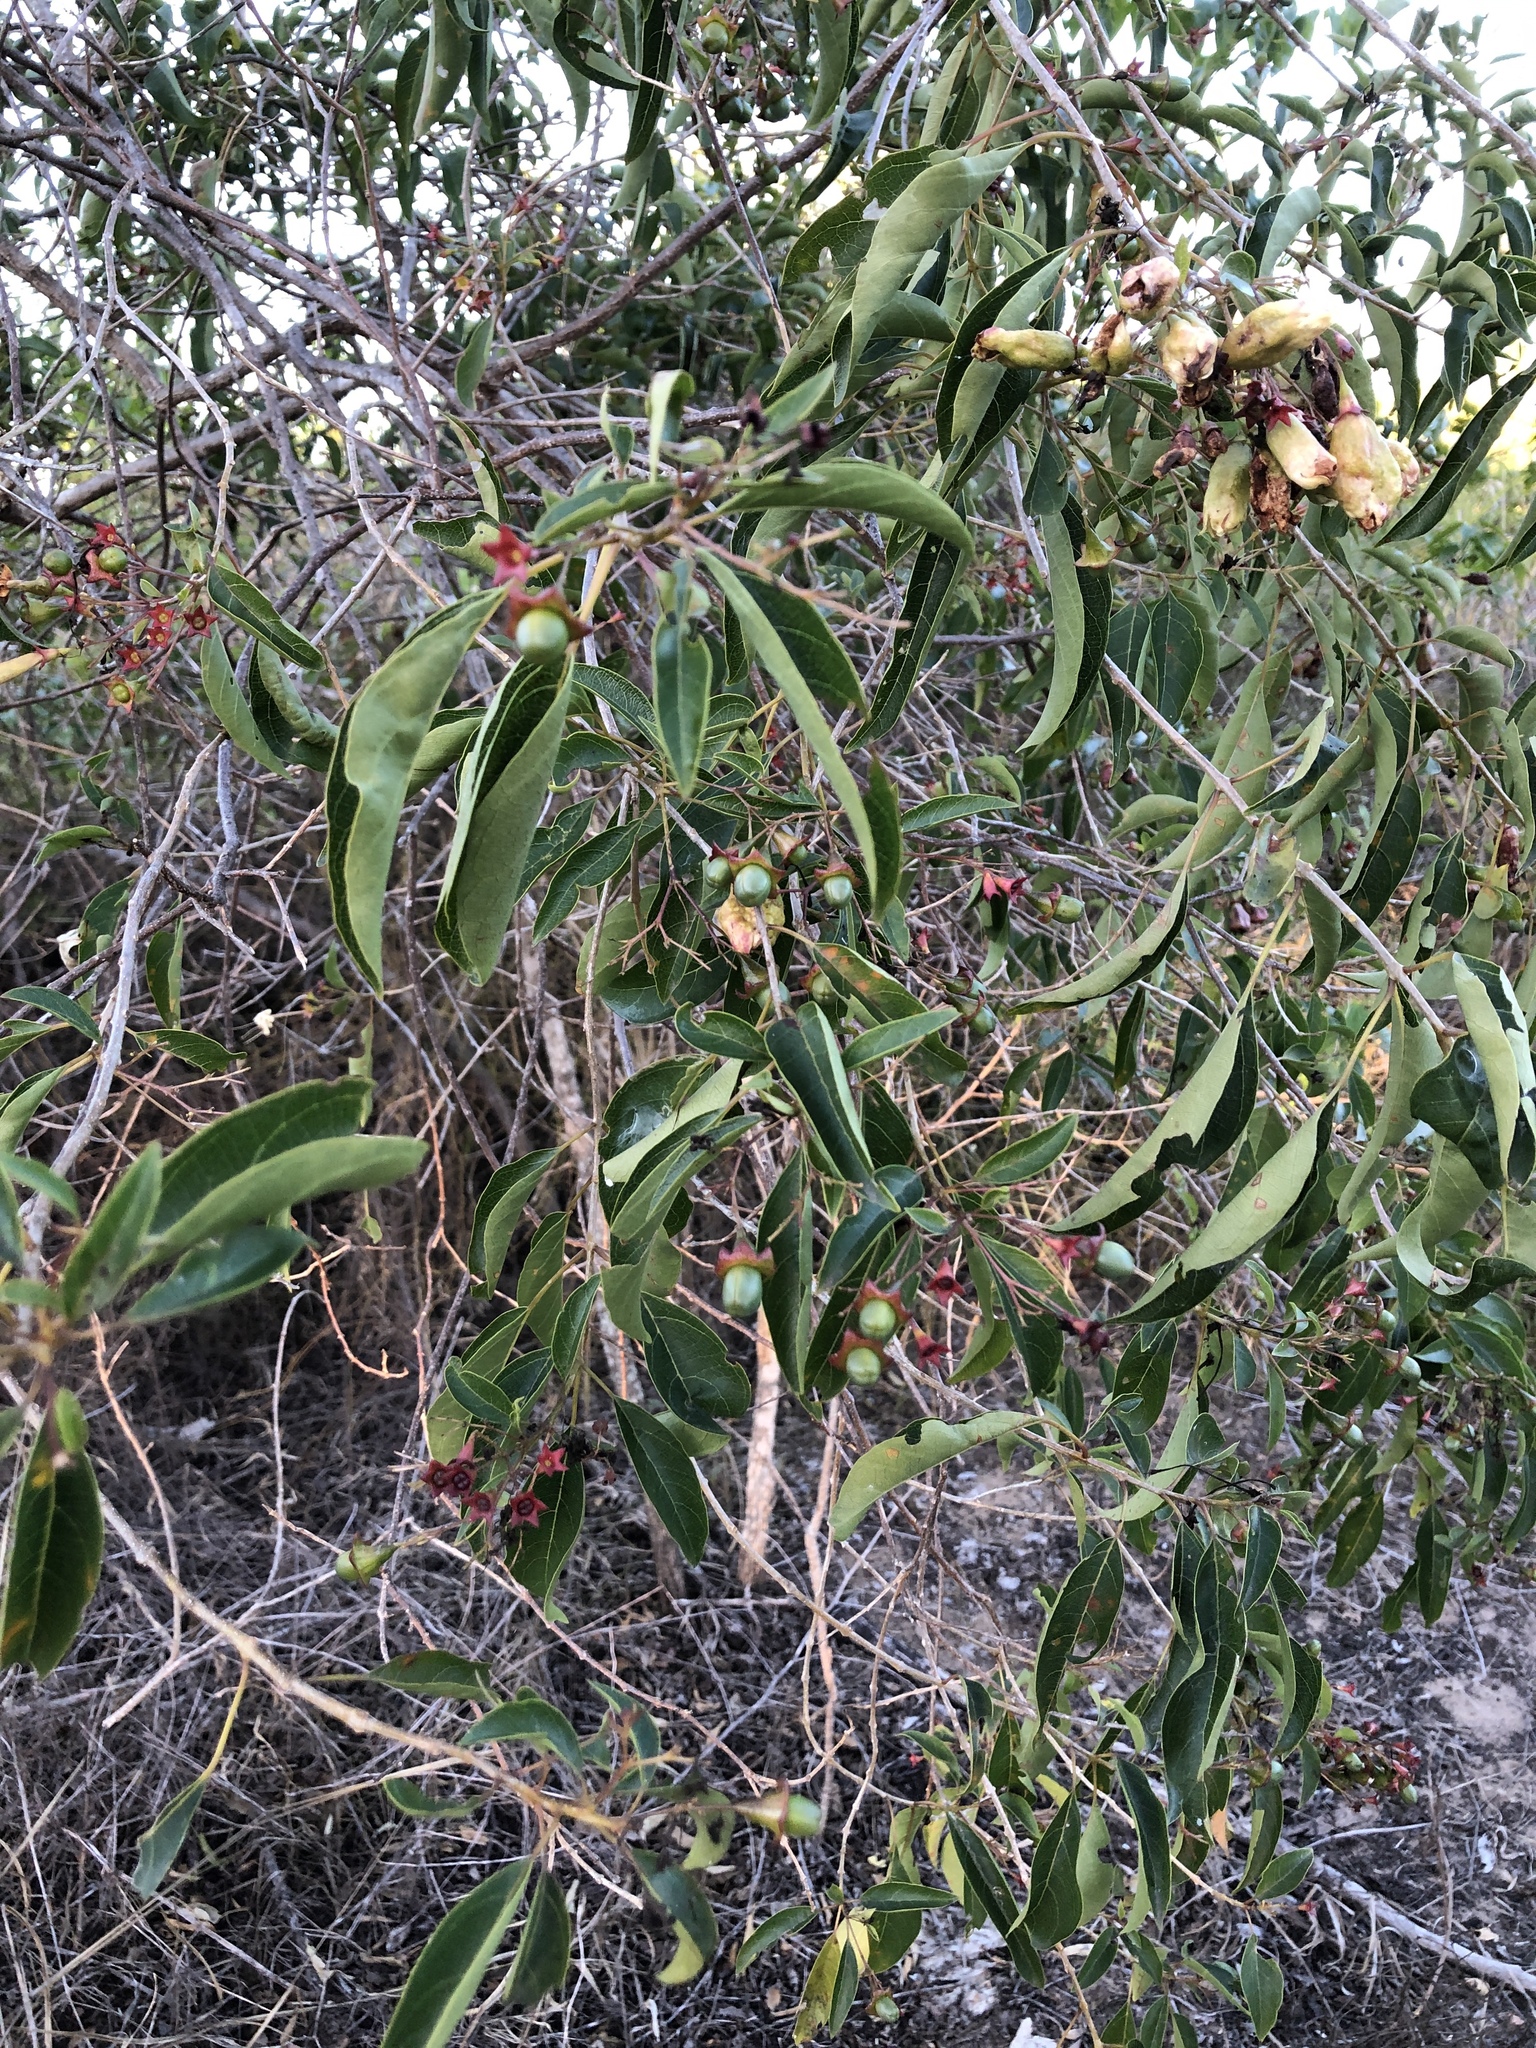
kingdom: Plantae
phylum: Tracheophyta
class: Magnoliopsida
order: Lamiales
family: Lamiaceae
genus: Clerodendrum
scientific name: Clerodendrum floribundum
